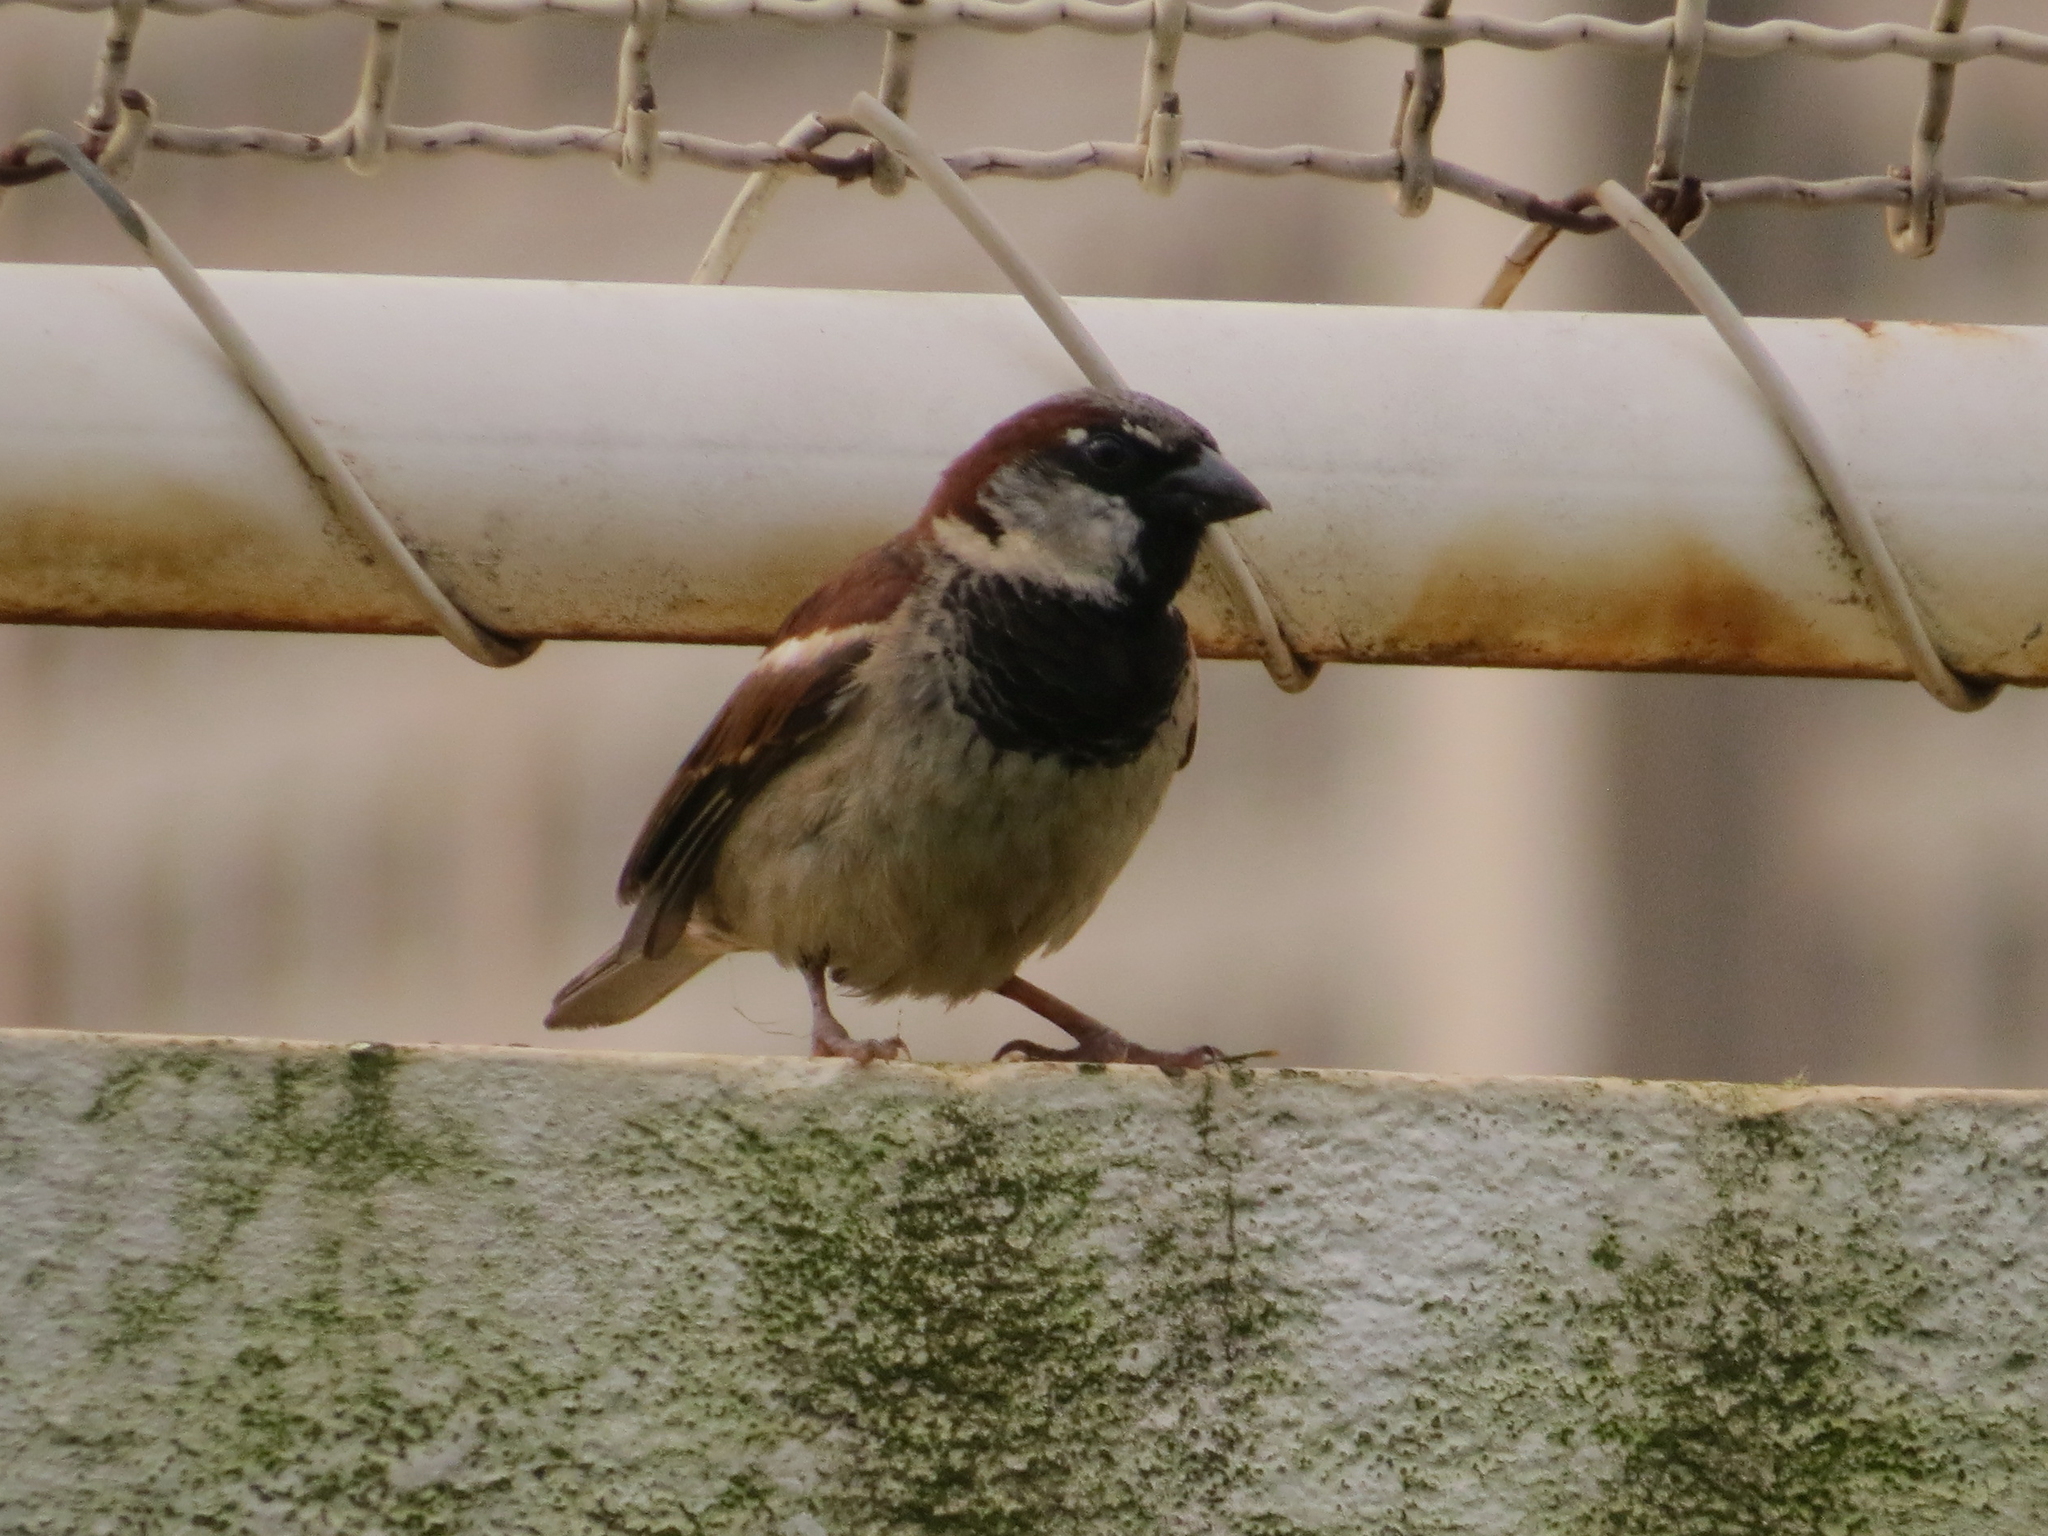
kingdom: Animalia
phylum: Chordata
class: Aves
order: Passeriformes
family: Passeridae
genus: Passer
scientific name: Passer domesticus
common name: House sparrow
